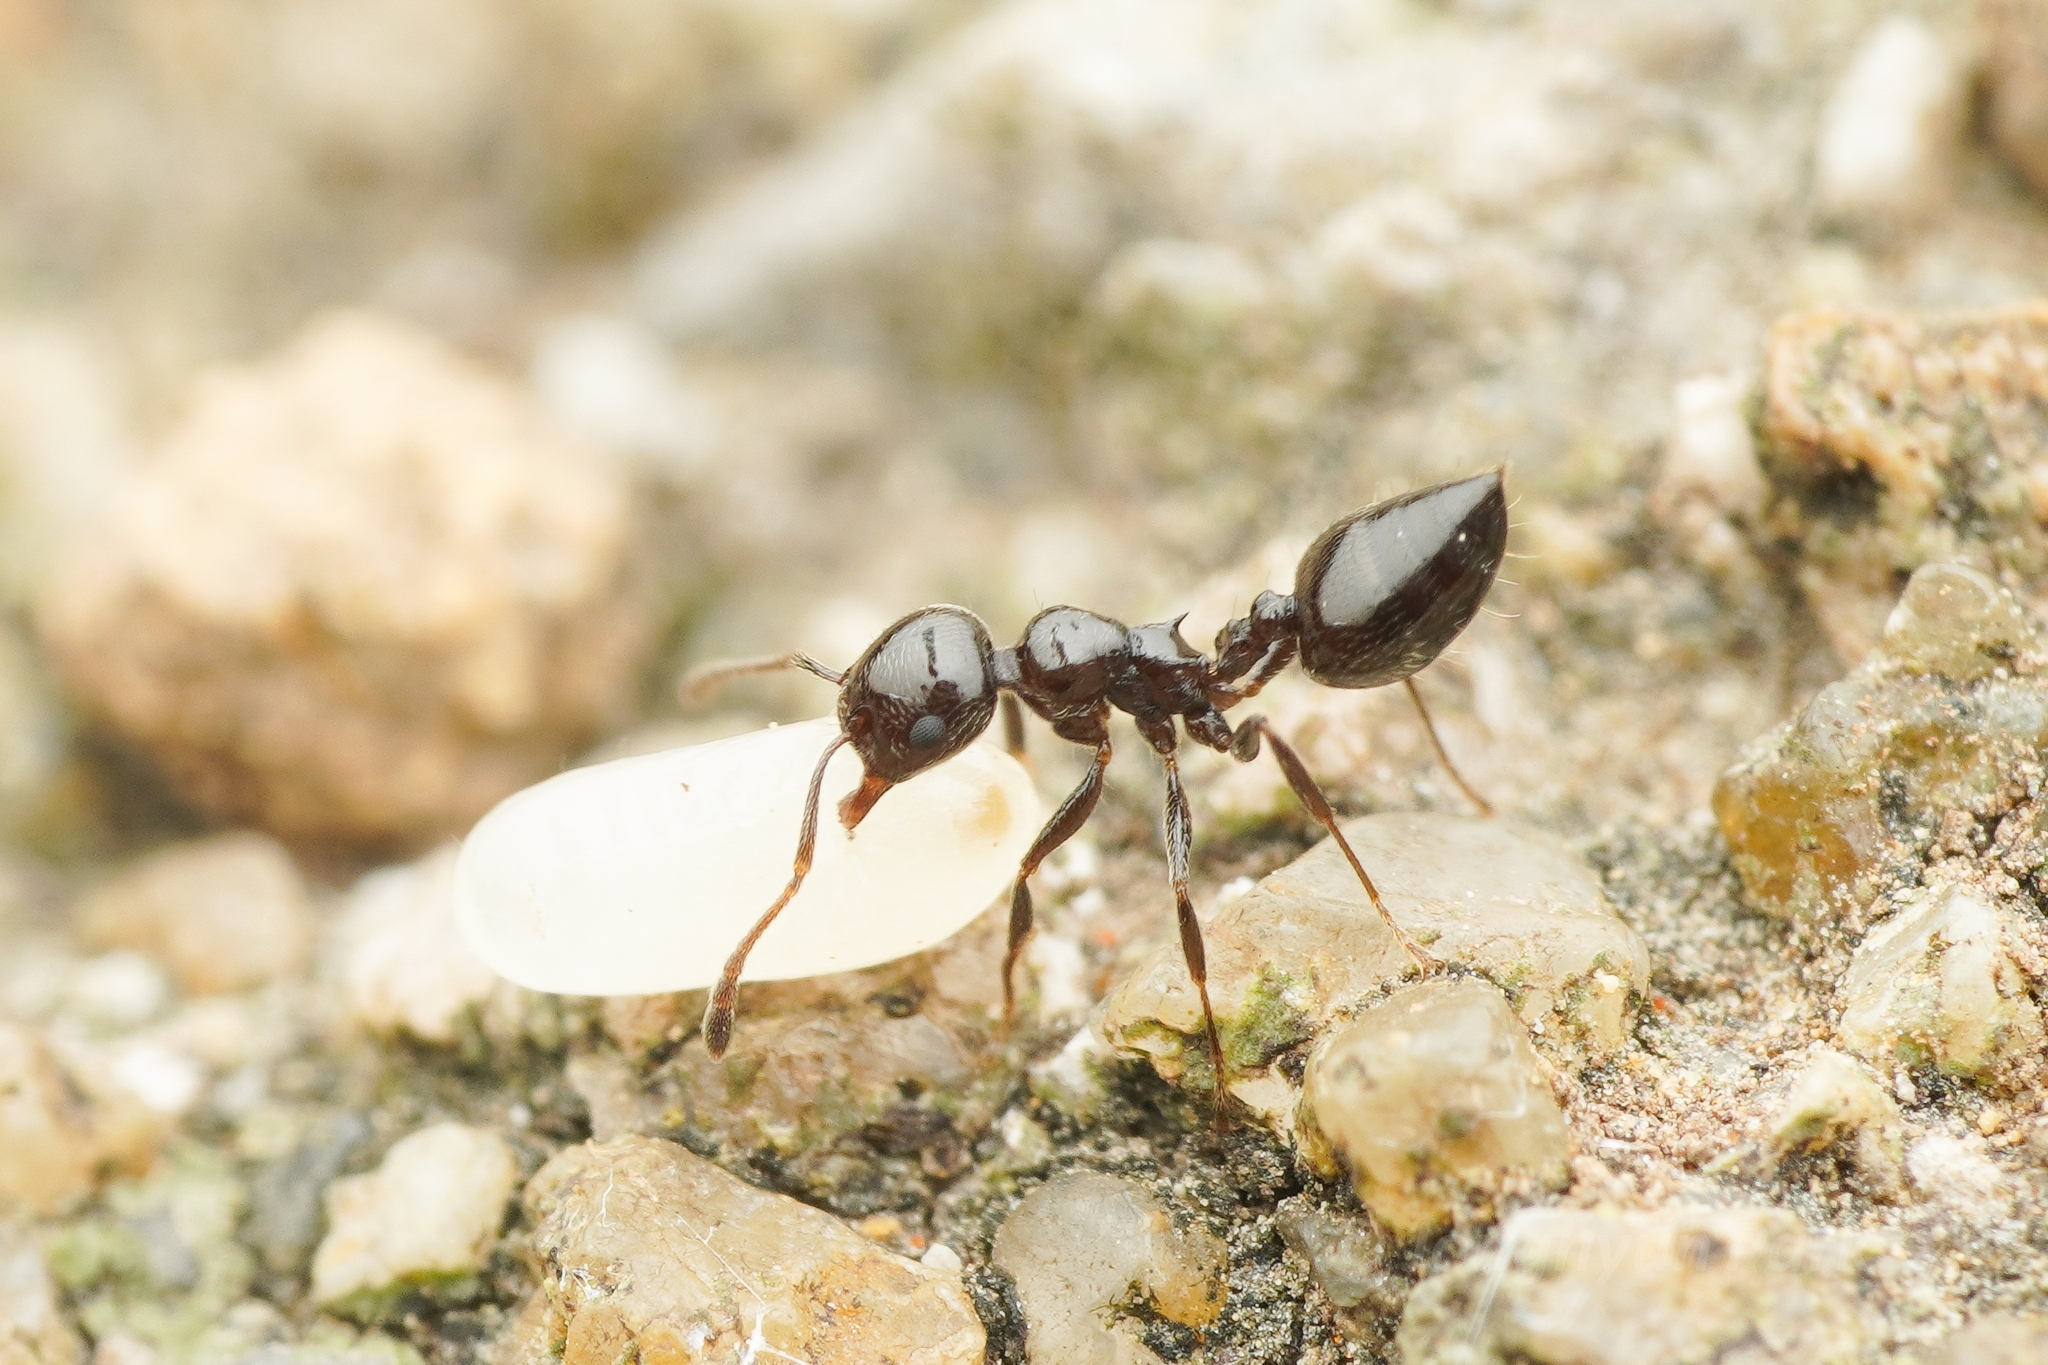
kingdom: Animalia
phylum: Arthropoda
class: Insecta
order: Hymenoptera
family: Formicidae
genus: Crematogaster
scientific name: Crematogaster nawai
